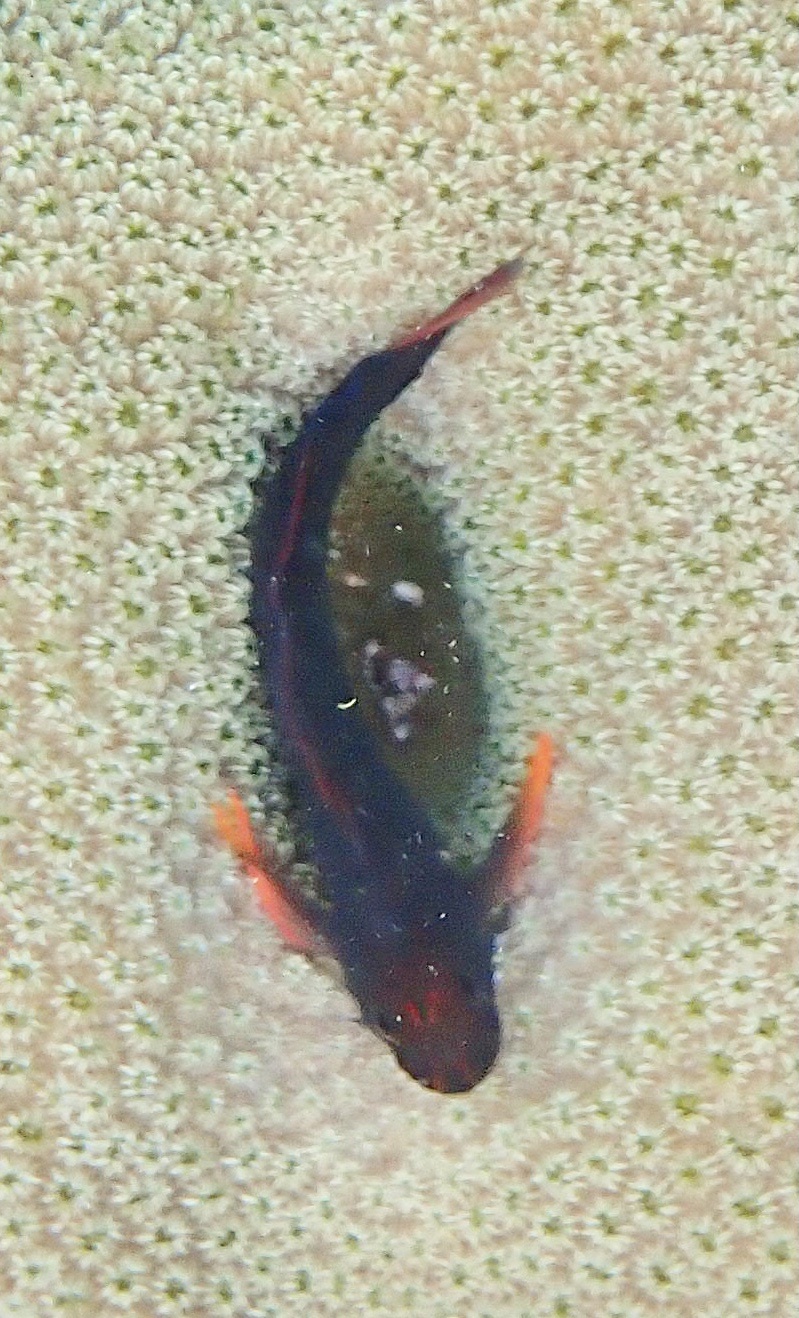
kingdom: Animalia
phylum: Chordata
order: Perciformes
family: Blenniidae
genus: Ophioblennius
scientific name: Ophioblennius macclurei
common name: Redlip blenny
